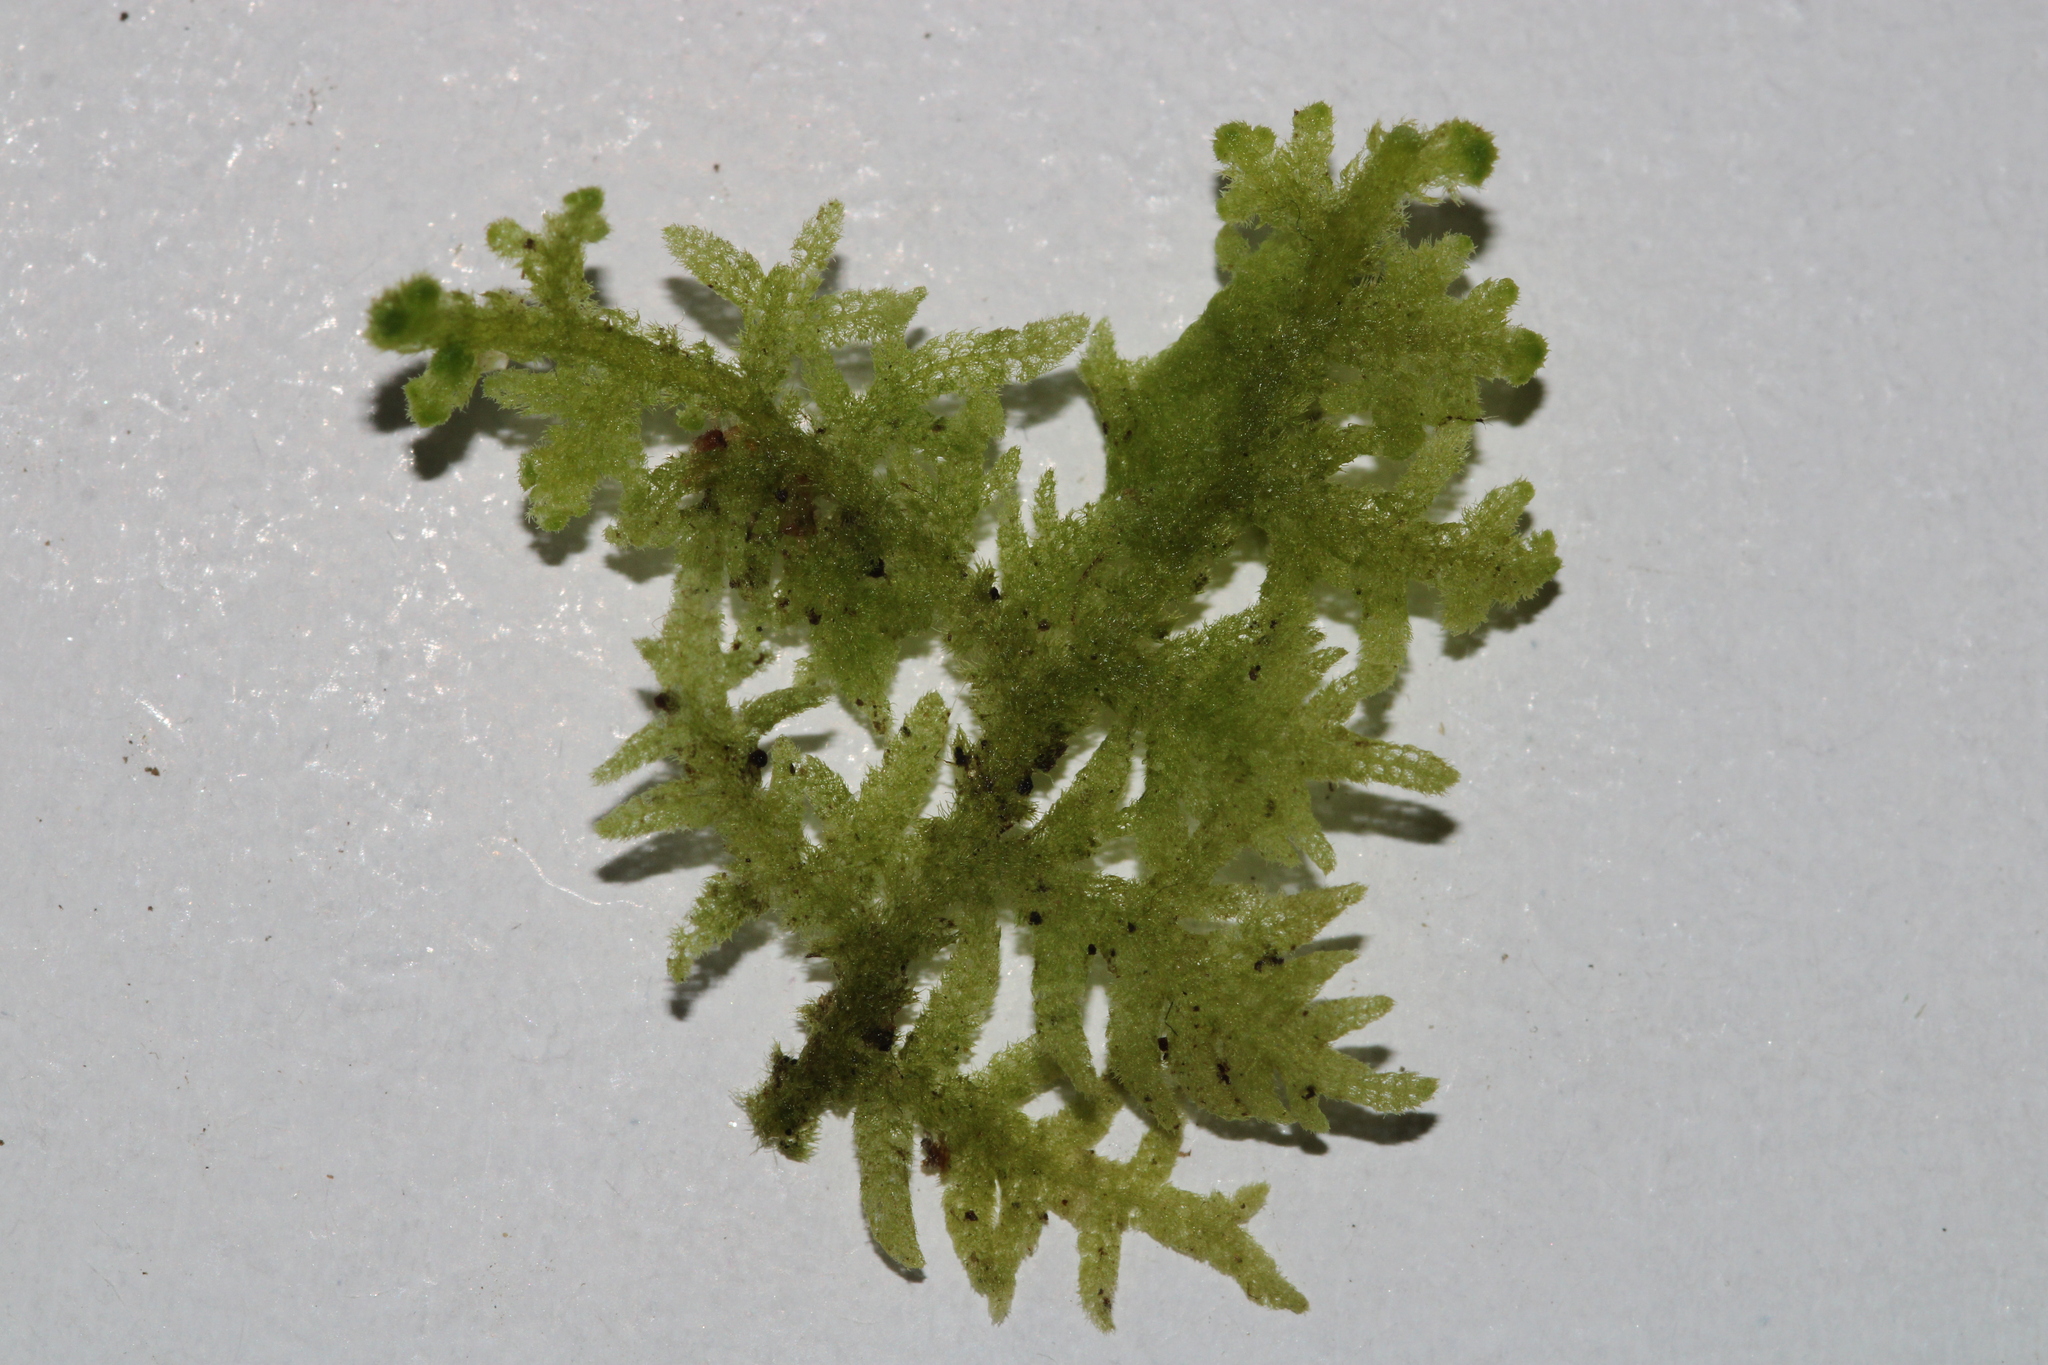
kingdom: Plantae
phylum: Marchantiophyta
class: Jungermanniopsida
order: Jungermanniales
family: Trichocoleaceae
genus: Trichocolea
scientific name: Trichocolea tomentella
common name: Woolly liverwort
